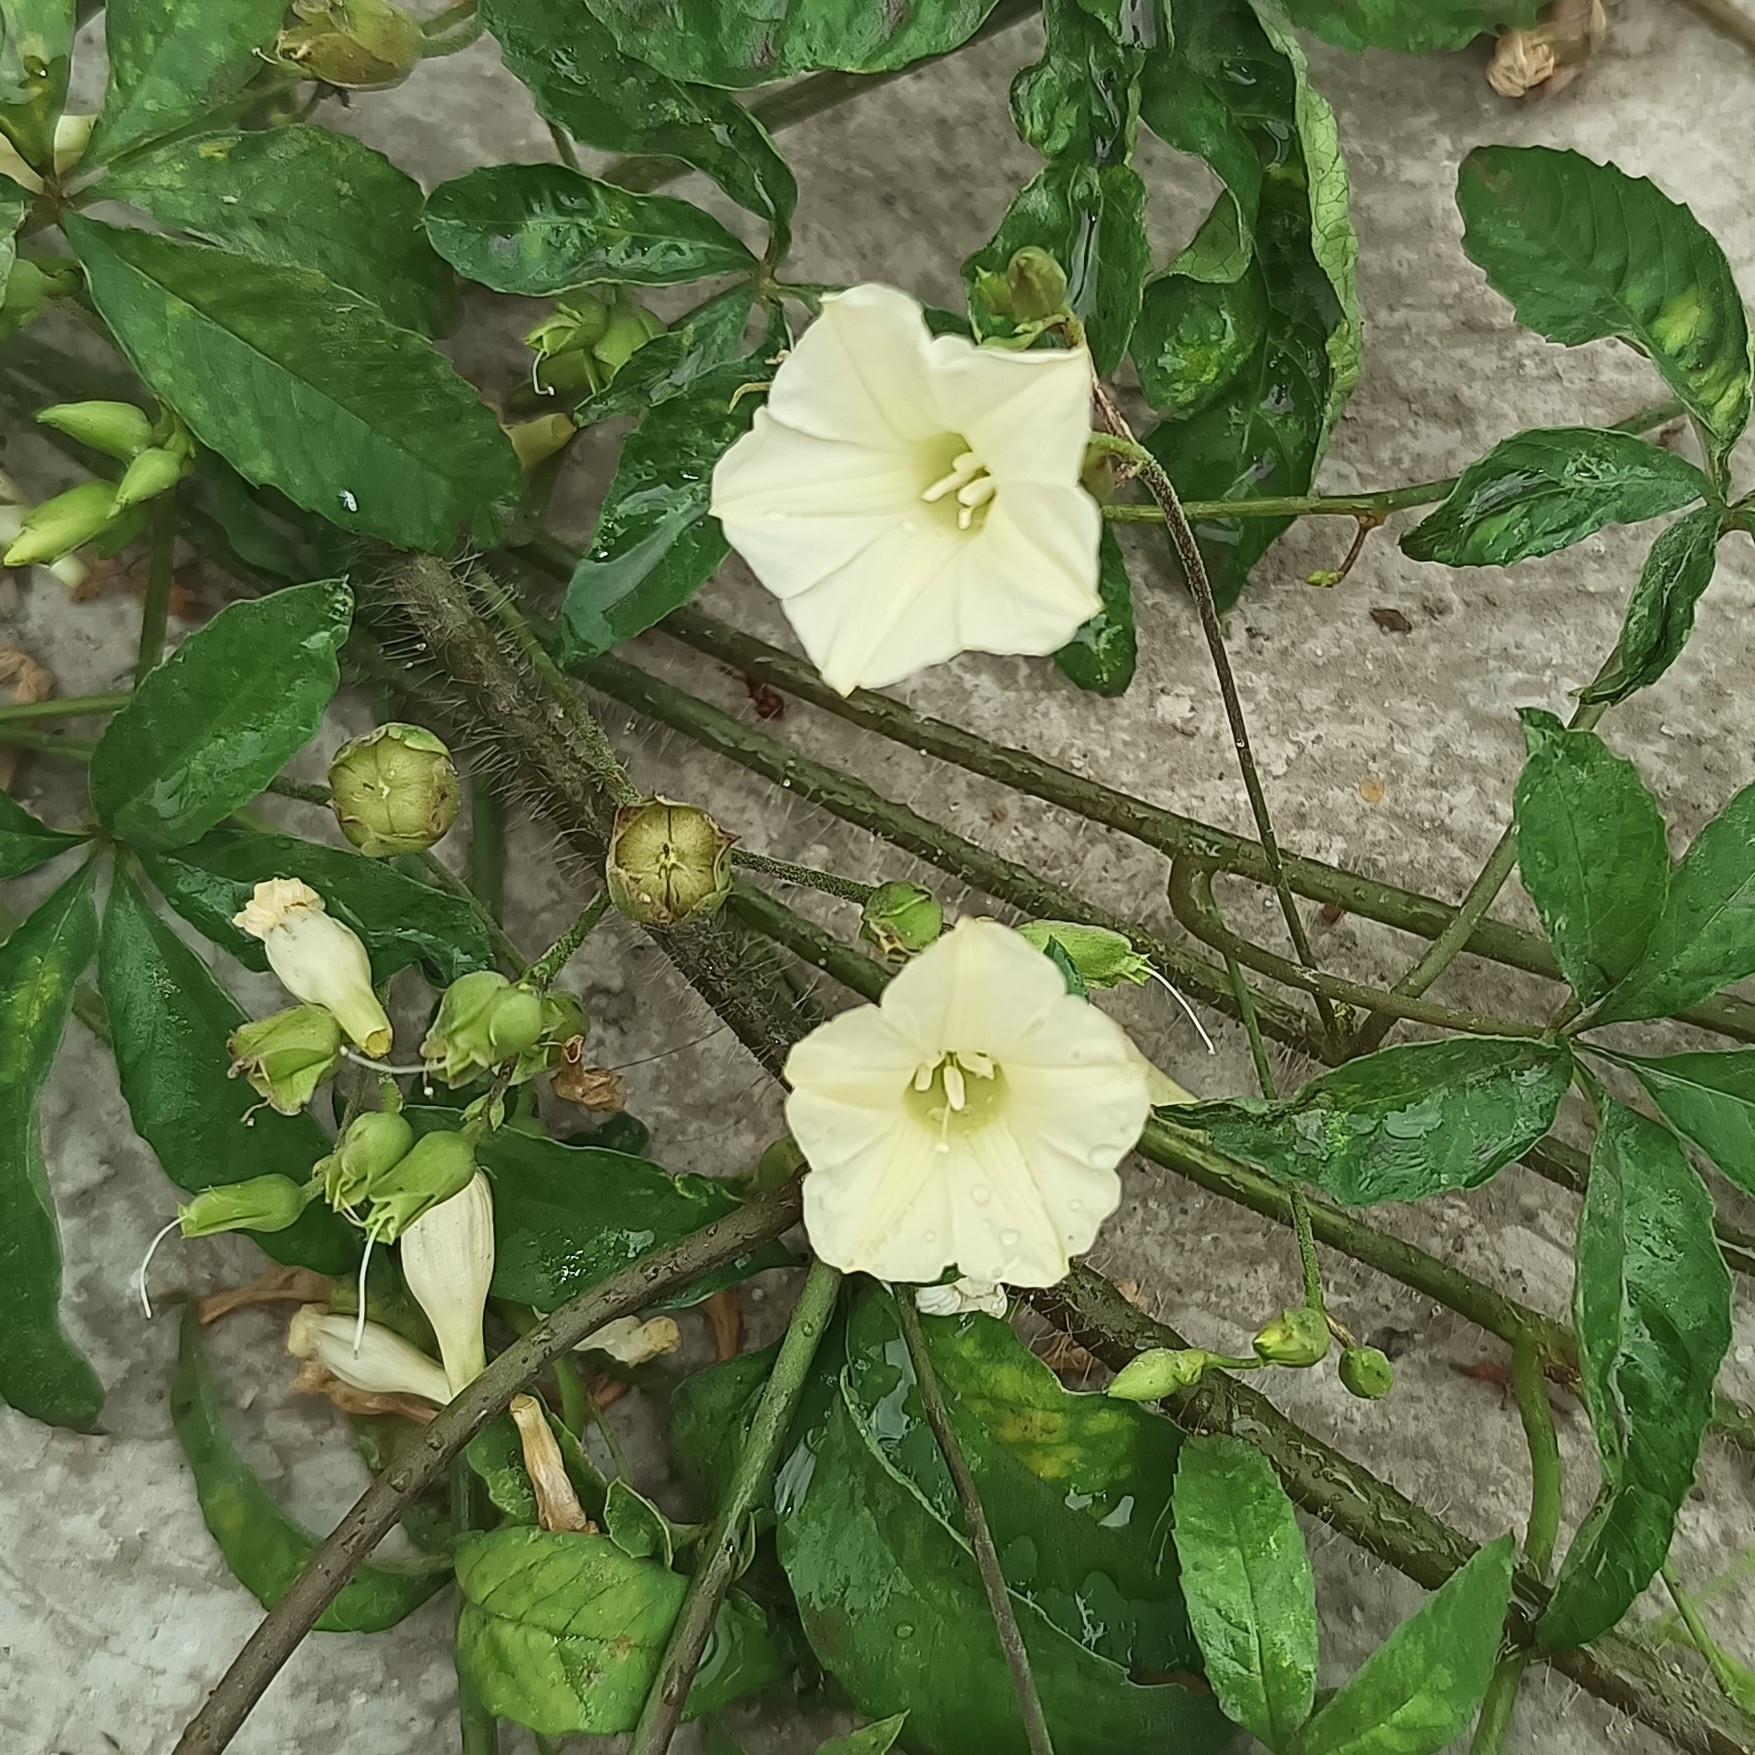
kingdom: Plantae
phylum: Tracheophyta
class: Magnoliopsida
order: Solanales
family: Convolvulaceae
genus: Distimake
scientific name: Distimake quinquefolius
